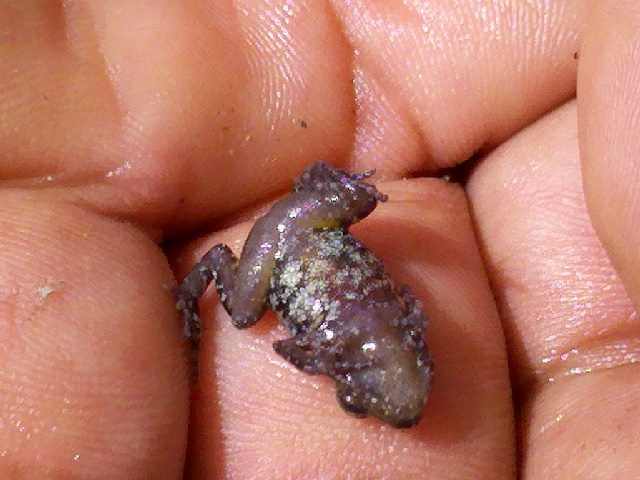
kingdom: Animalia
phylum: Chordata
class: Amphibia
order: Anura
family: Eleutherodactylidae
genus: Eleutherodactylus
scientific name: Eleutherodactylus nitidus
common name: Peters' shiny peeping frog
